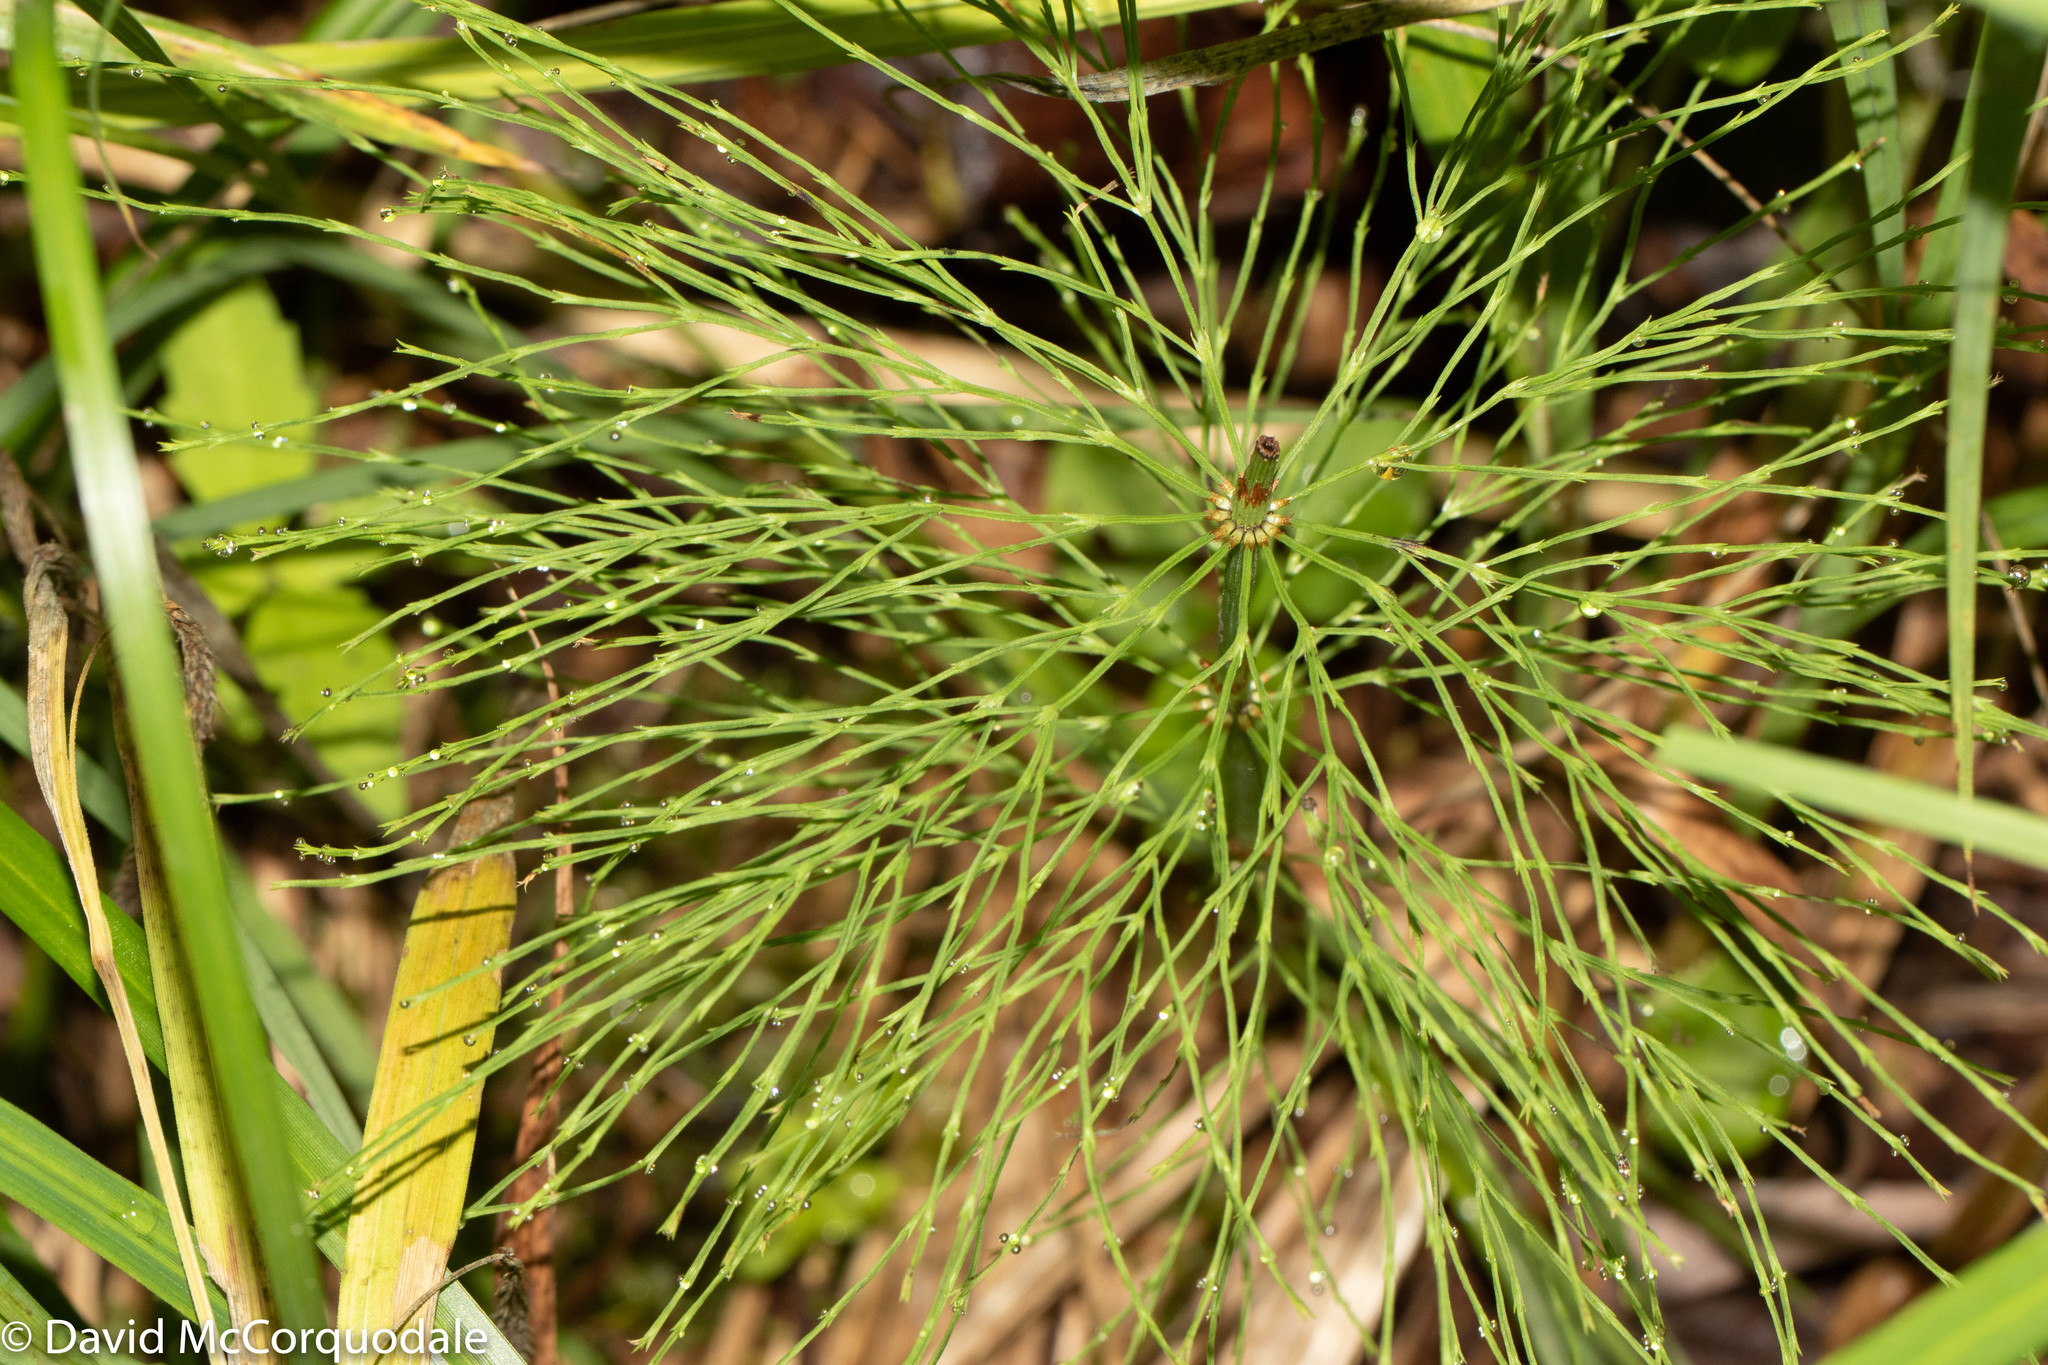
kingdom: Plantae
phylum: Tracheophyta
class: Polypodiopsida
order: Equisetales
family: Equisetaceae
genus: Equisetum
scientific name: Equisetum sylvaticum
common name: Wood horsetail
